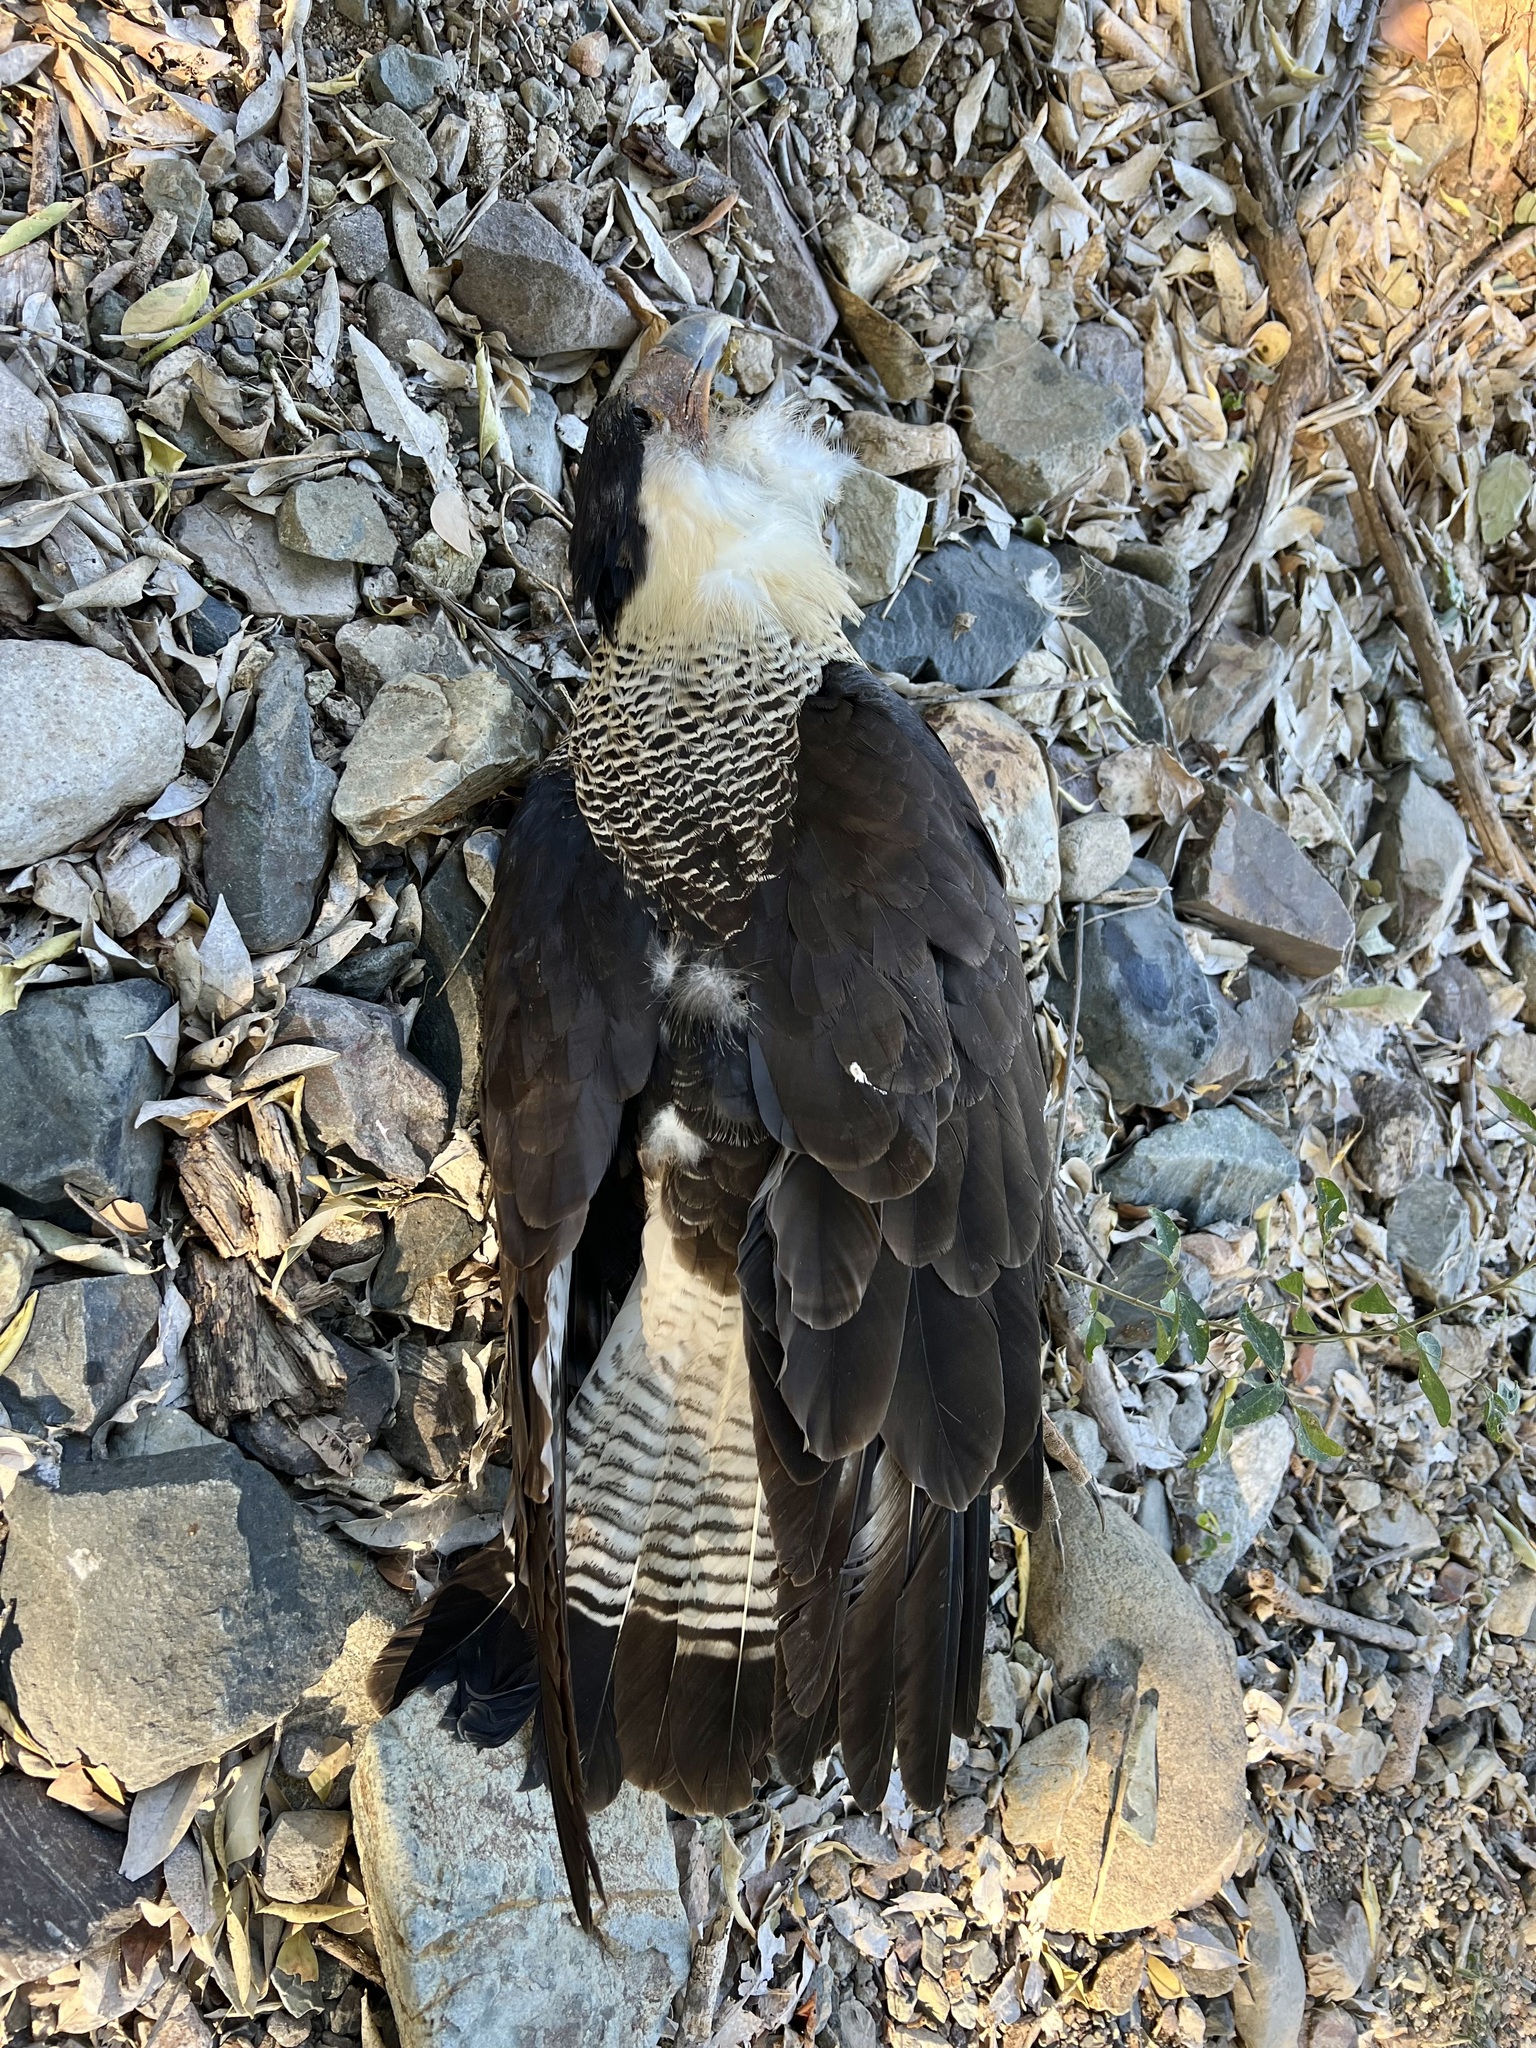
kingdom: Animalia
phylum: Chordata
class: Aves
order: Falconiformes
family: Falconidae
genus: Caracara
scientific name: Caracara plancus
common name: Southern caracara
